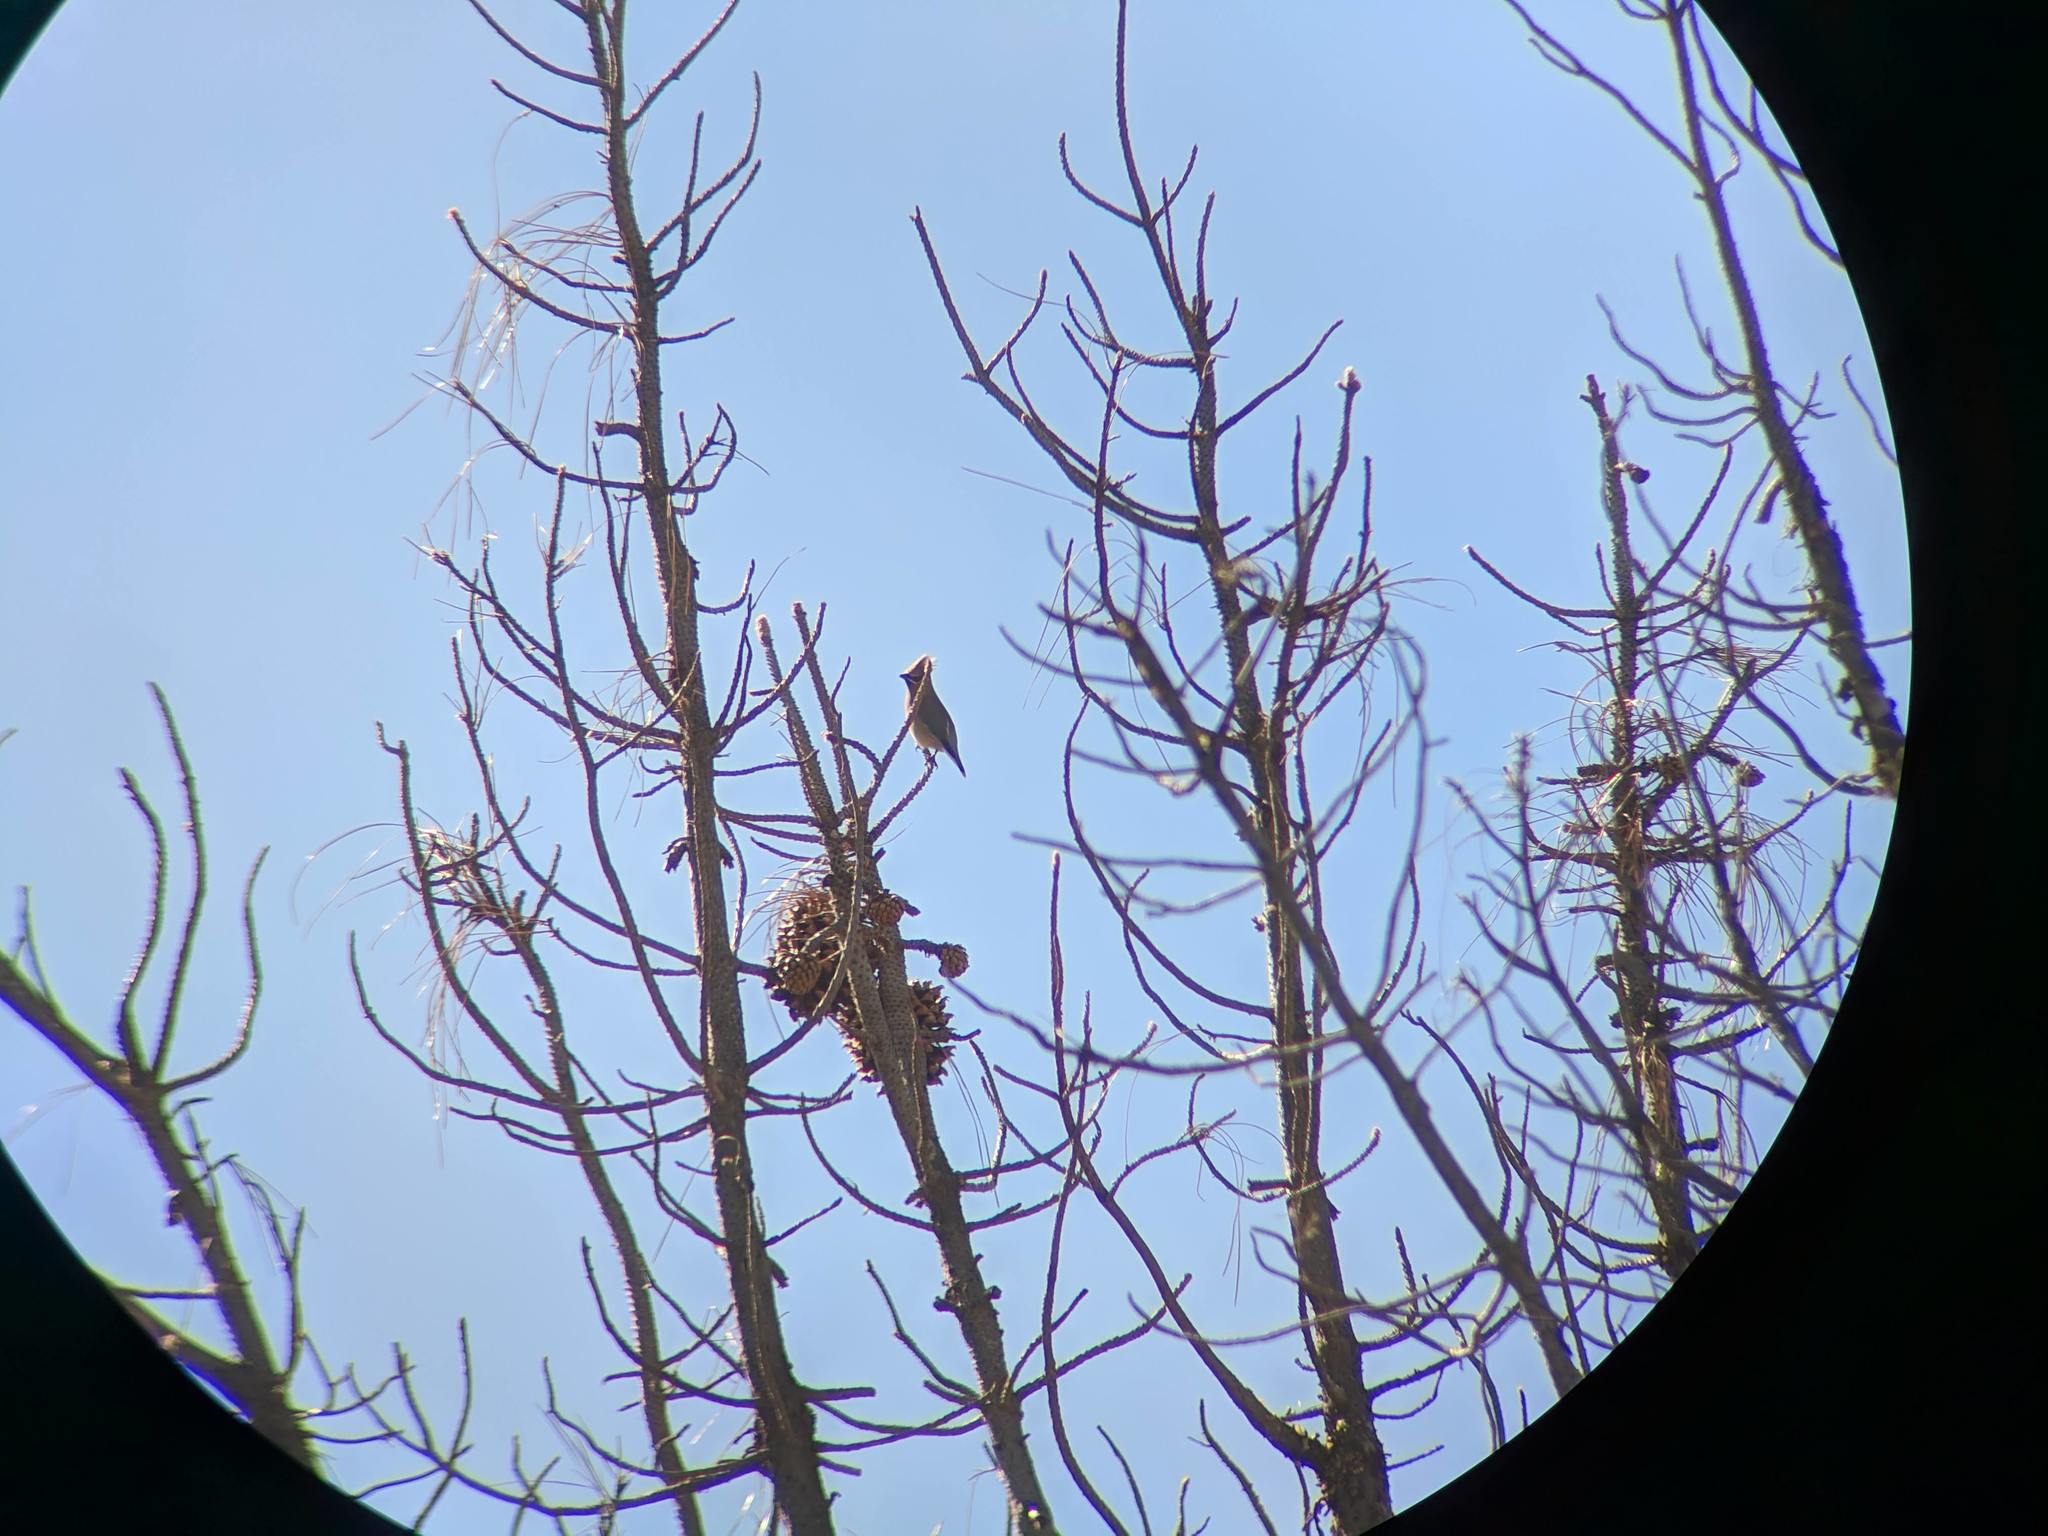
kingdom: Animalia
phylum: Chordata
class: Aves
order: Passeriformes
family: Bombycillidae
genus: Bombycilla
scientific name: Bombycilla cedrorum
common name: Cedar waxwing
